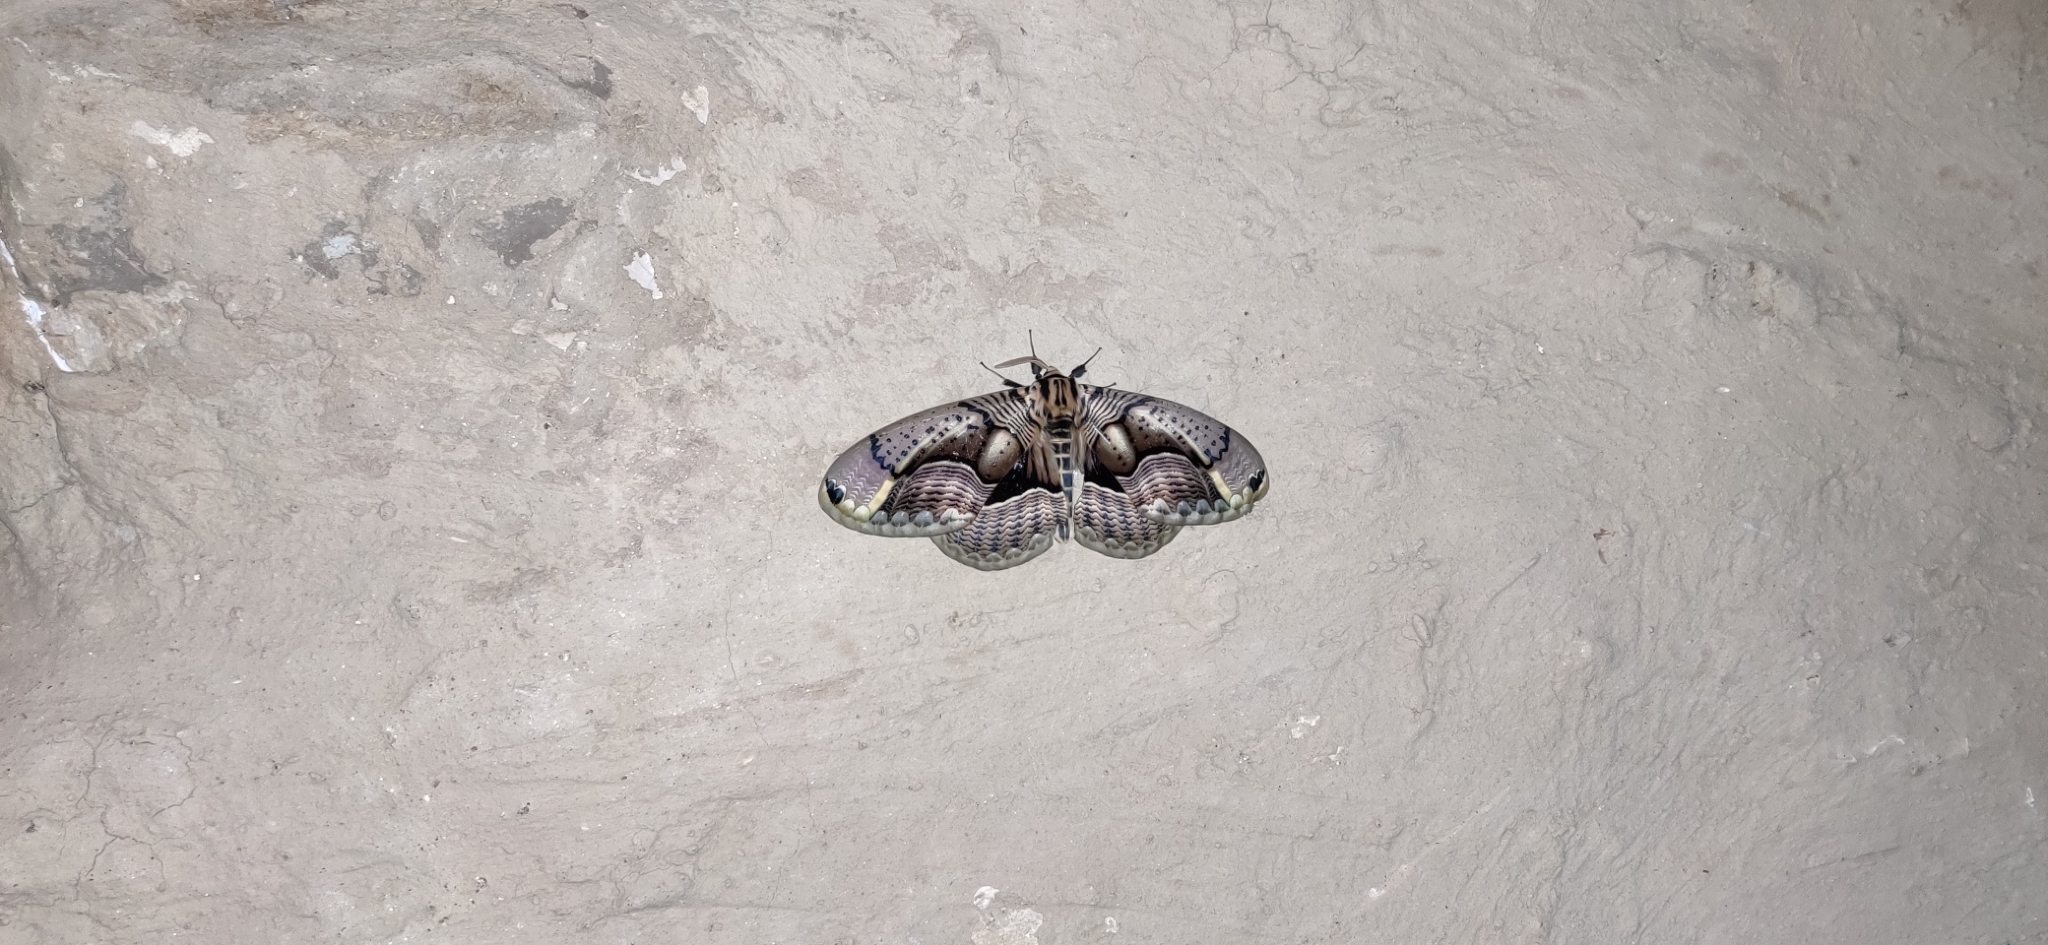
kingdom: Animalia
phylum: Arthropoda
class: Insecta
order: Lepidoptera
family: Brahmaeidae
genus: Brahmaea
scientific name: Brahmaea wallichii
